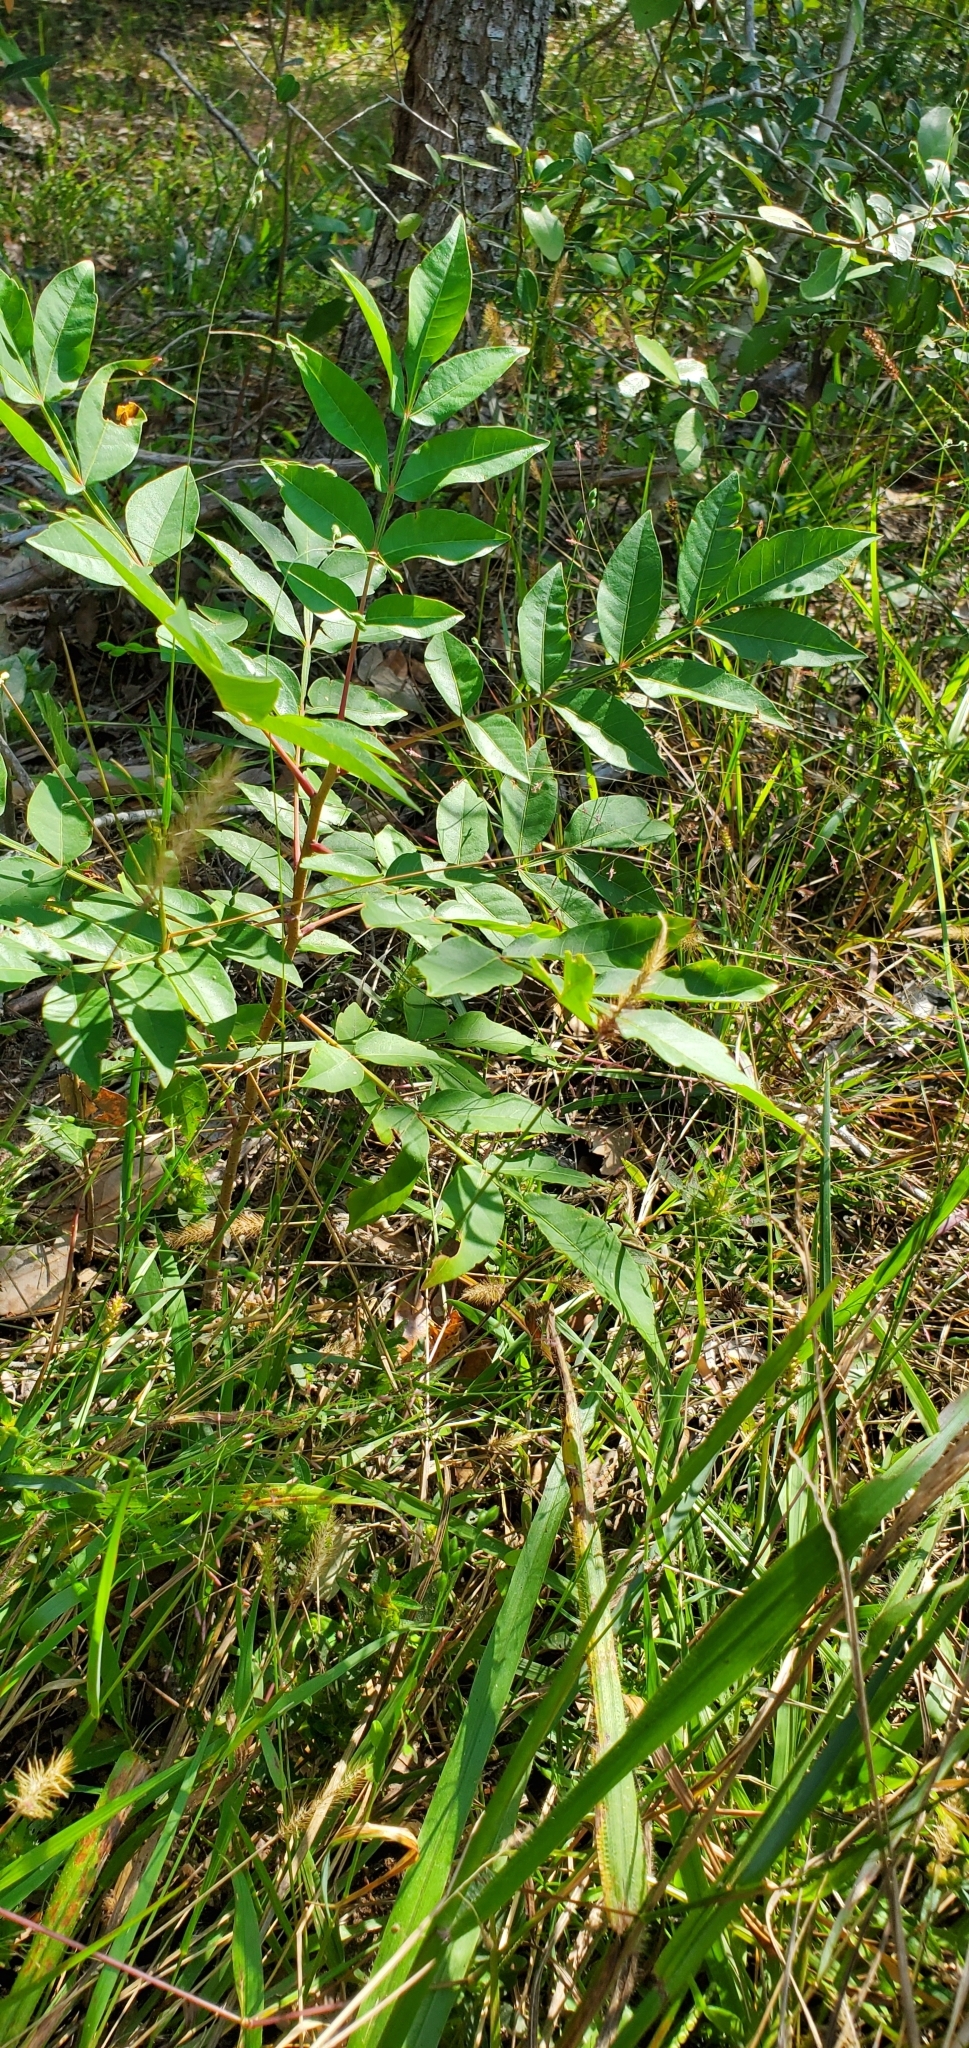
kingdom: Plantae
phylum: Tracheophyta
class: Magnoliopsida
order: Sapindales
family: Anacardiaceae
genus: Rhus
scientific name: Rhus copallina
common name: Shining sumac
